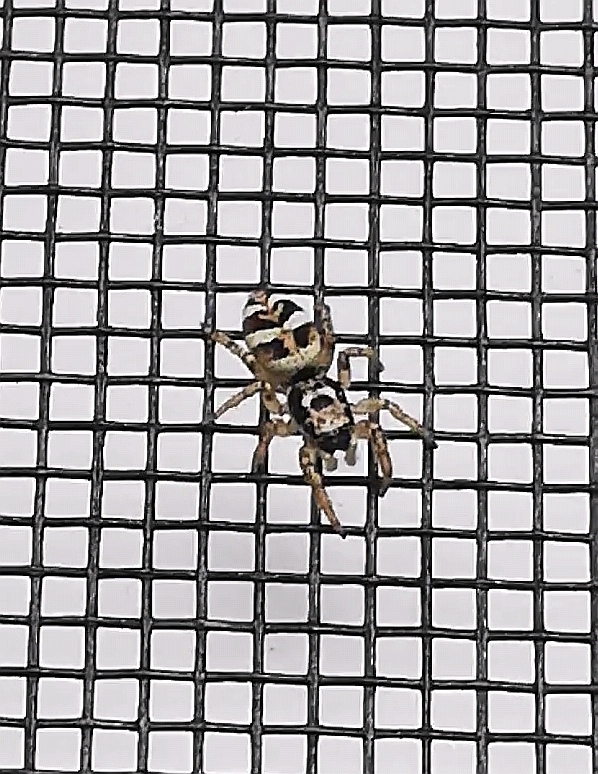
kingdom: Animalia
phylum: Arthropoda
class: Arachnida
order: Araneae
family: Salticidae
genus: Salticus
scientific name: Salticus scenicus
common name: Zebra jumper
